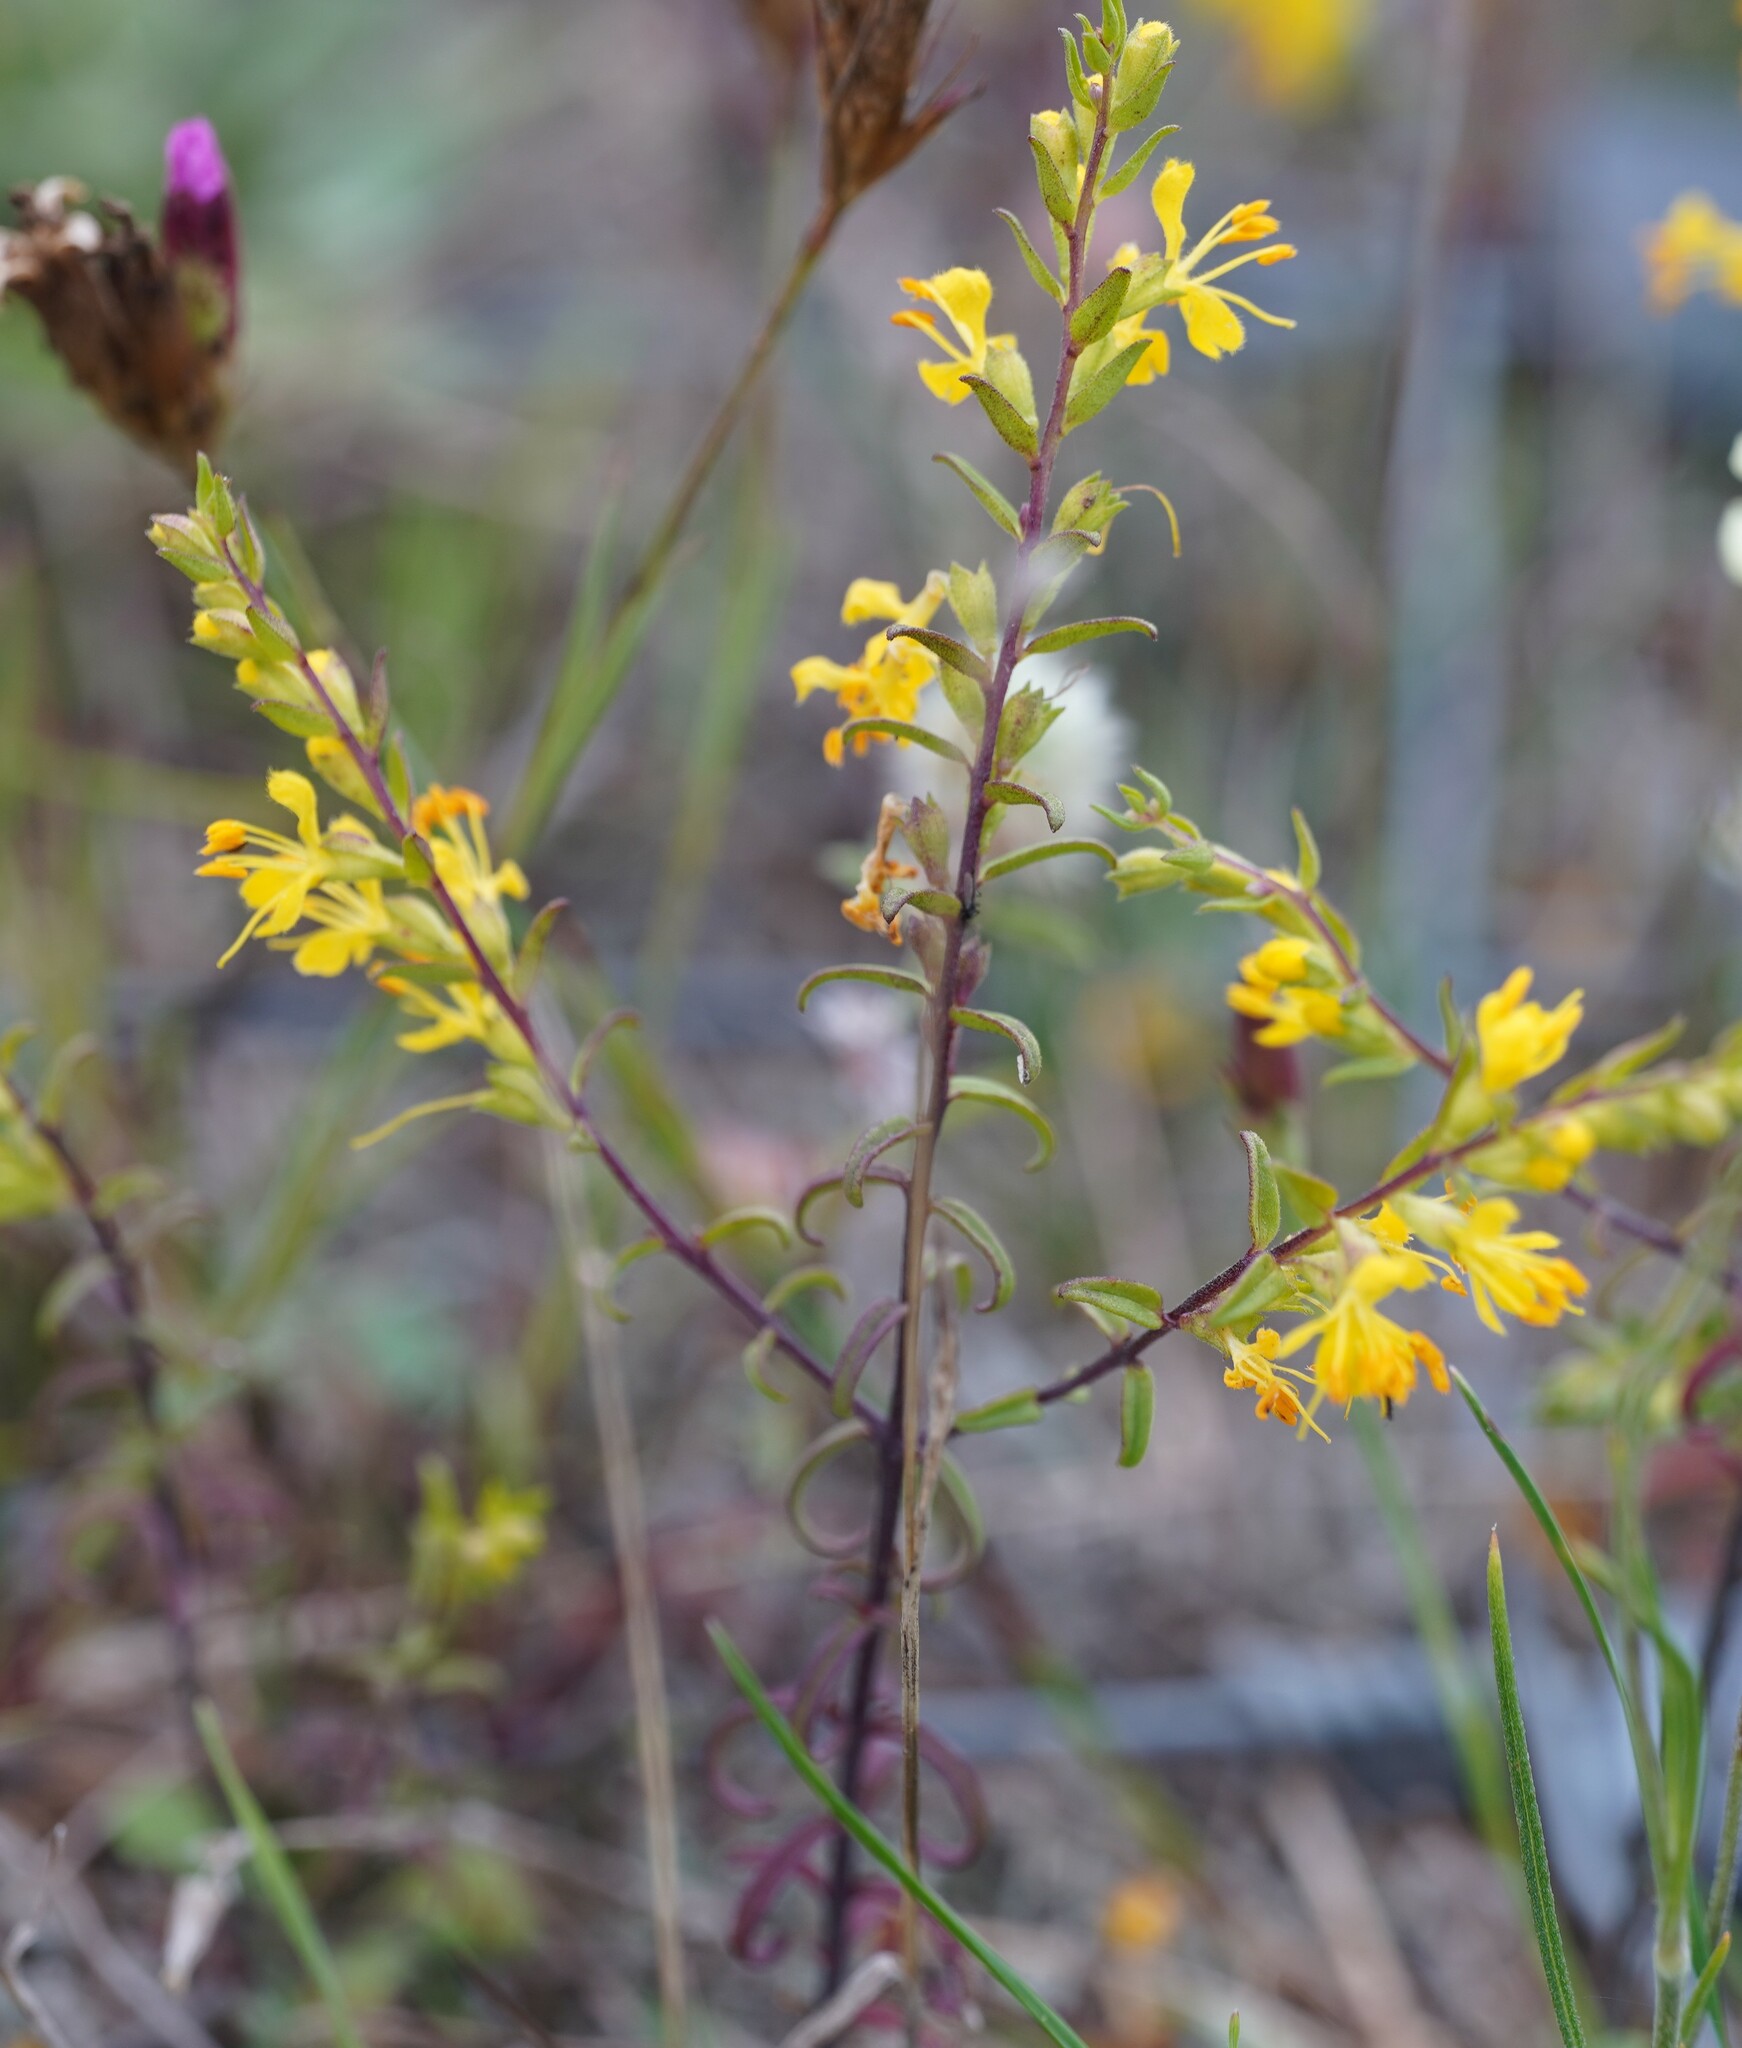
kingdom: Plantae
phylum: Tracheophyta
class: Magnoliopsida
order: Lamiales
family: Orobanchaceae
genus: Odontites
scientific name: Odontites luteus
